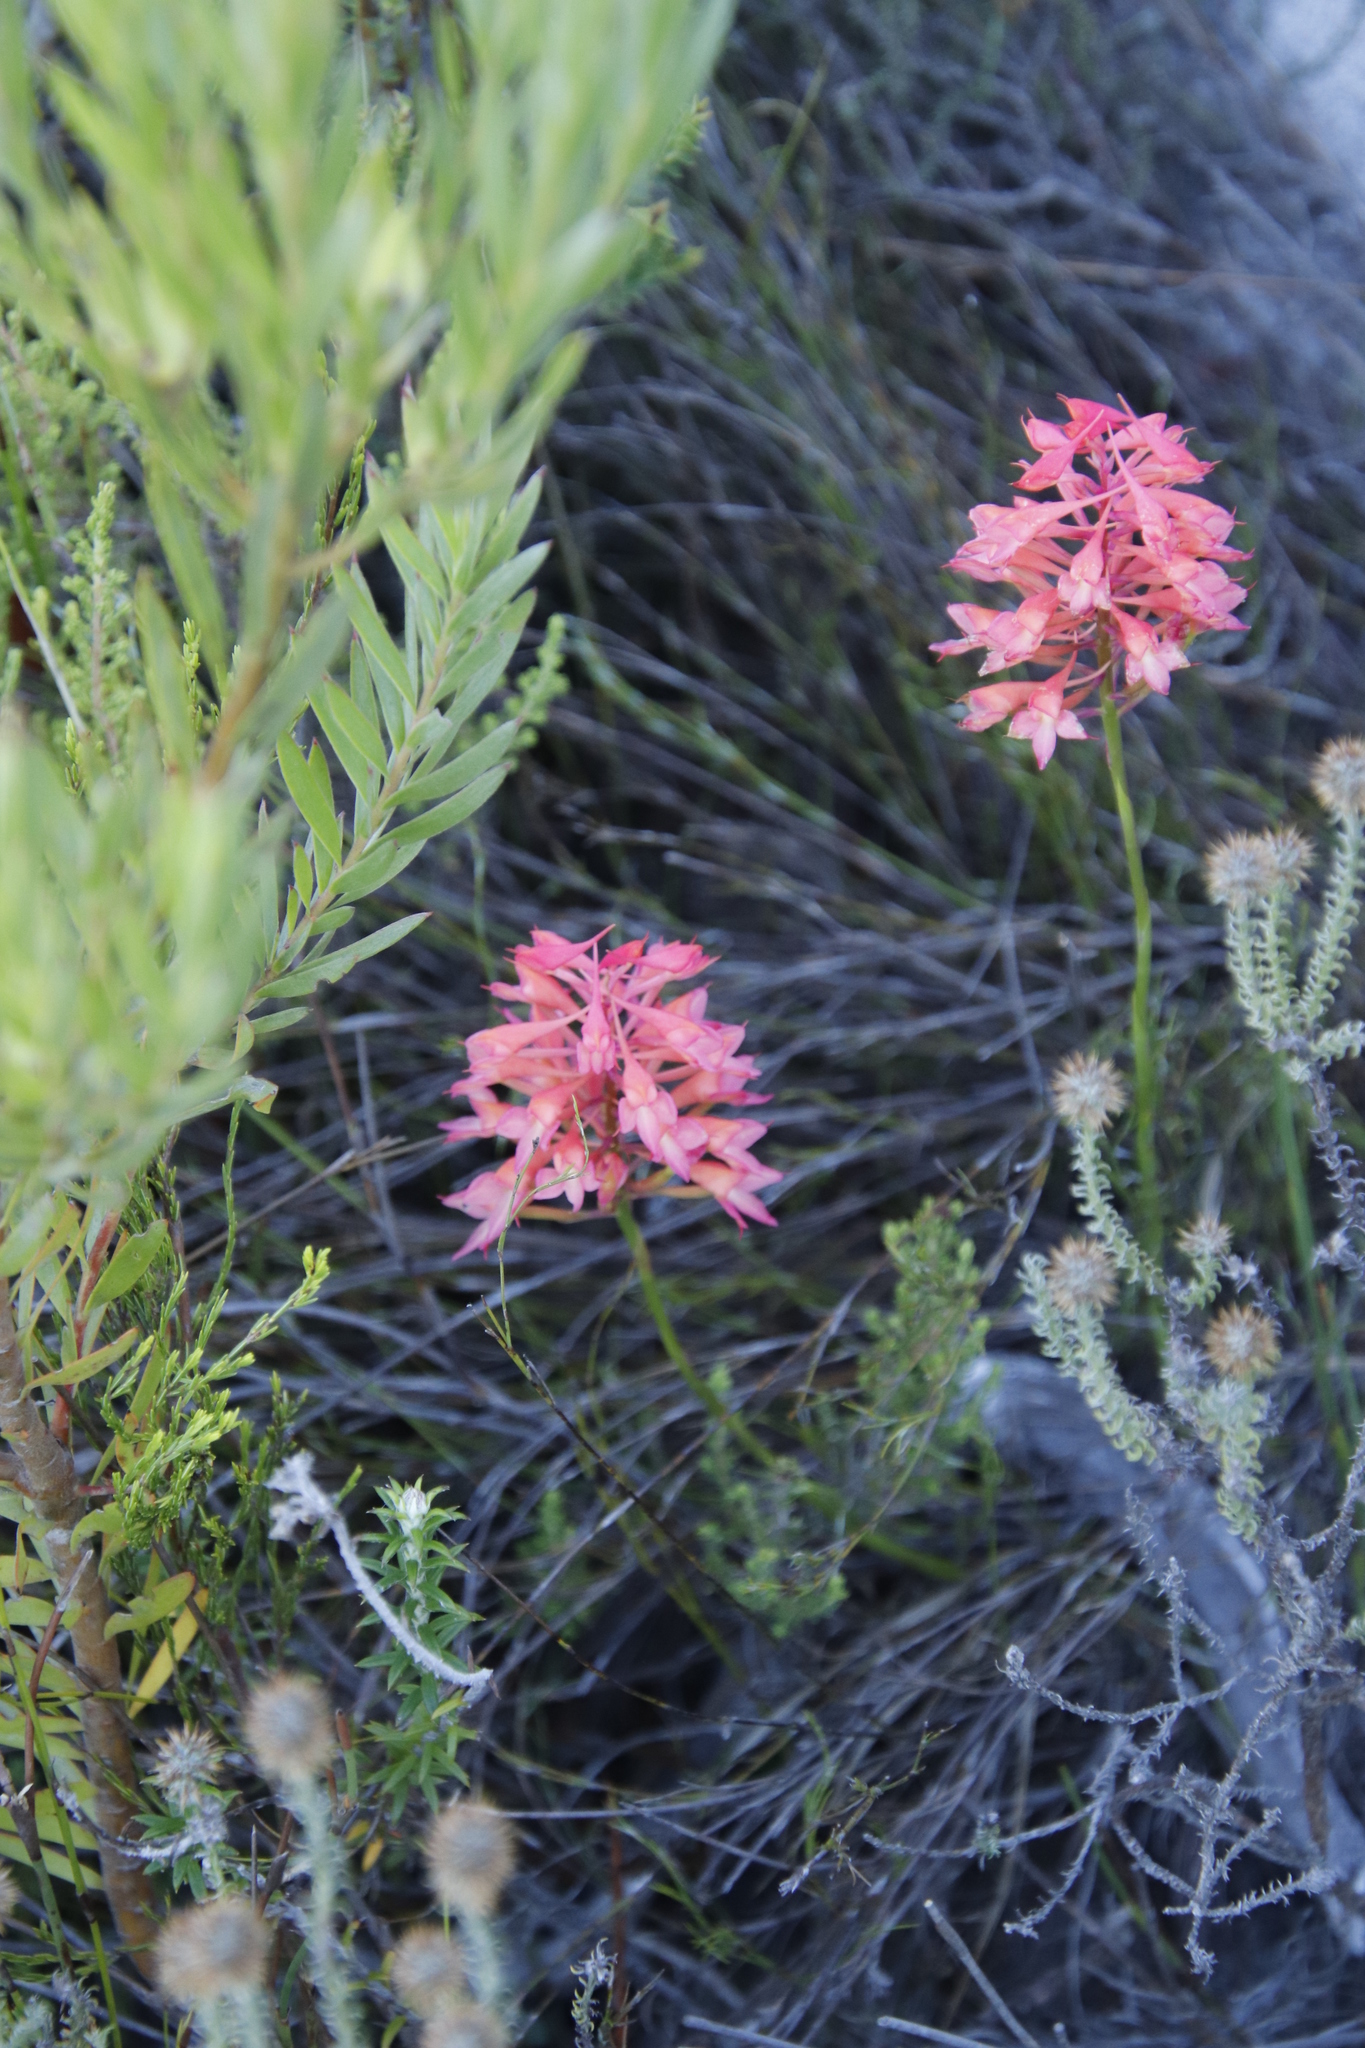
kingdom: Plantae
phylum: Tracheophyta
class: Liliopsida
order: Asparagales
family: Orchidaceae
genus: Disa
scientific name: Disa ferruginea
